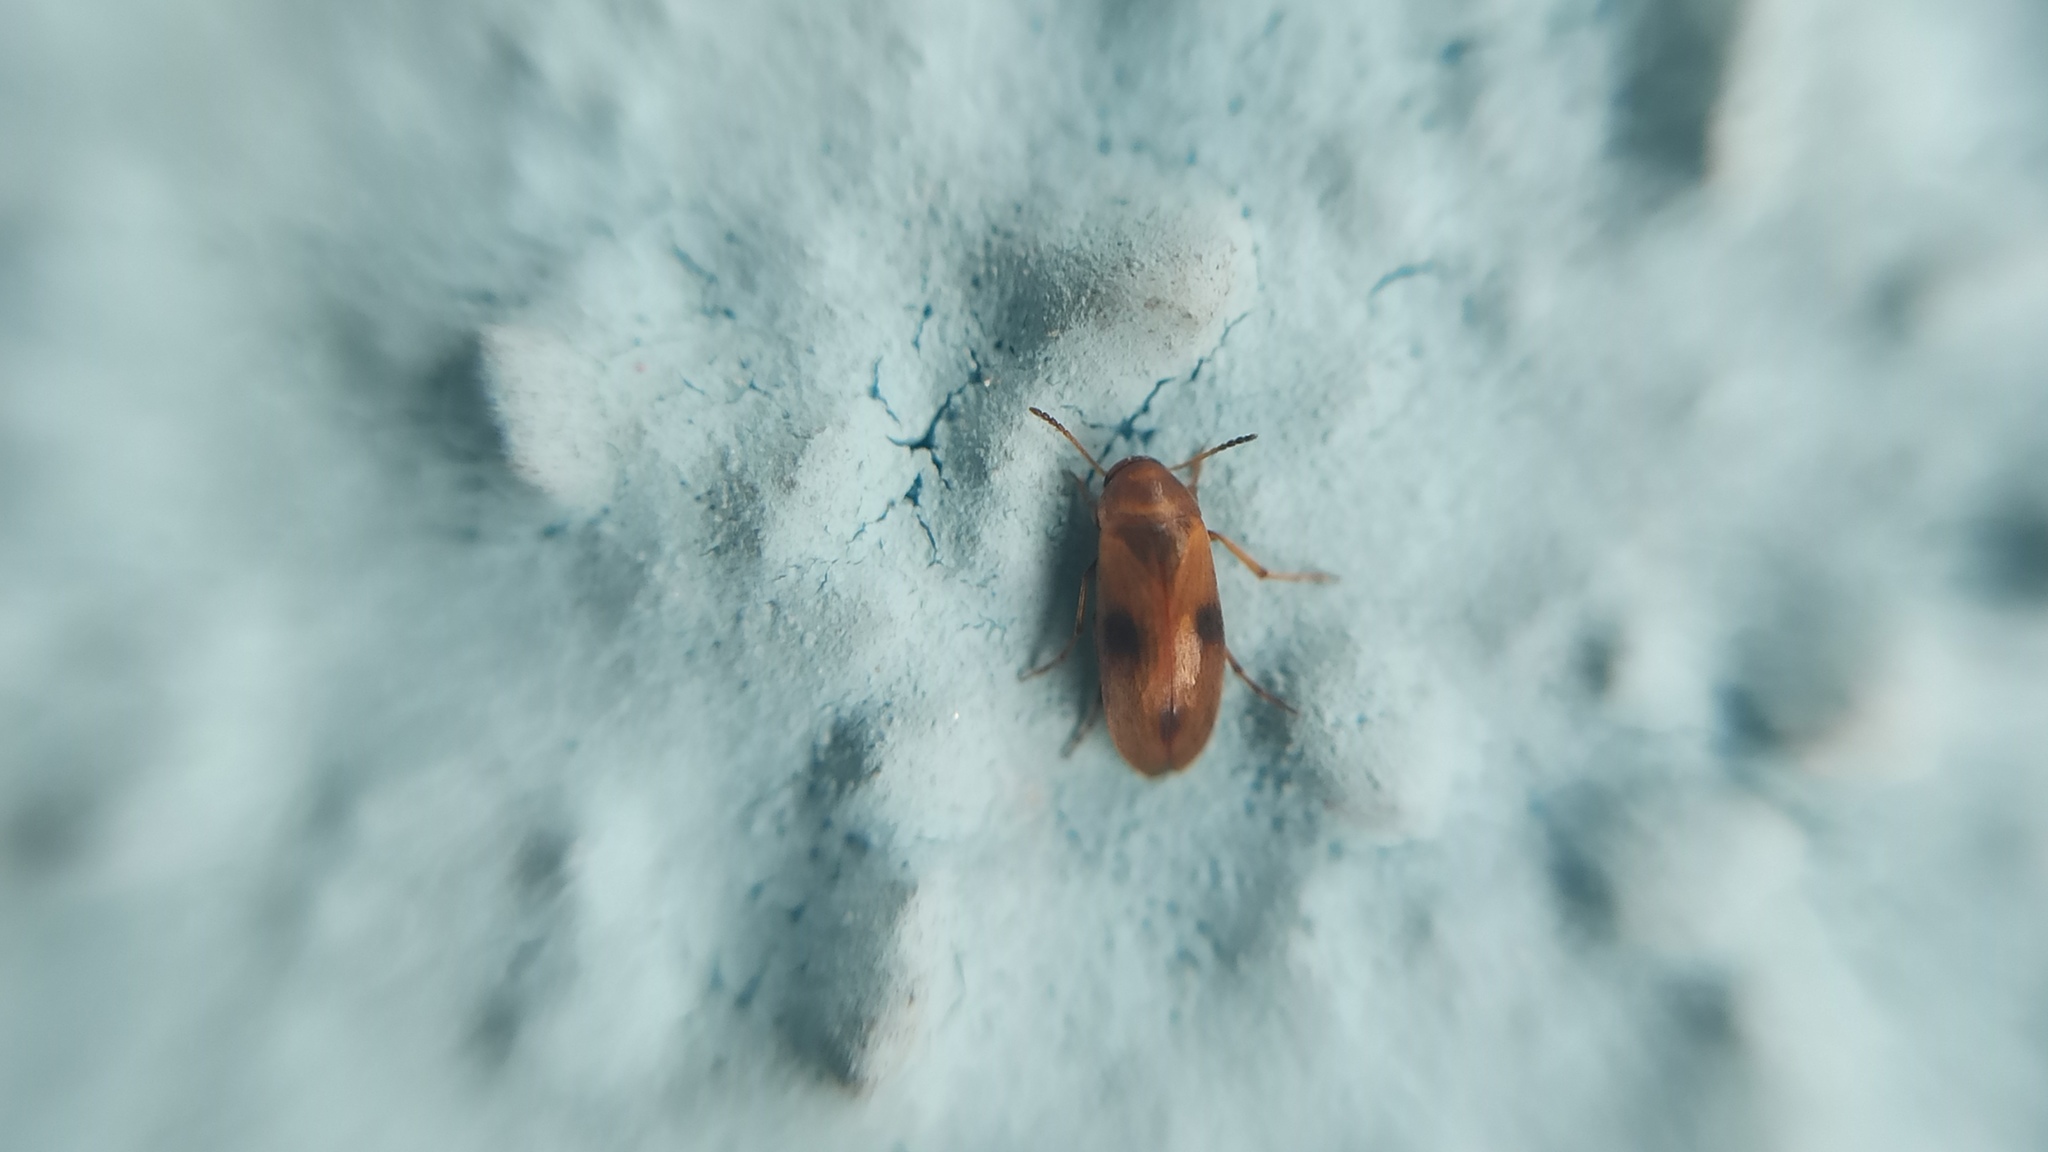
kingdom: Animalia
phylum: Arthropoda
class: Insecta
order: Coleoptera
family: Scraptiidae
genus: Anaspis
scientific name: Anaspis maculata
